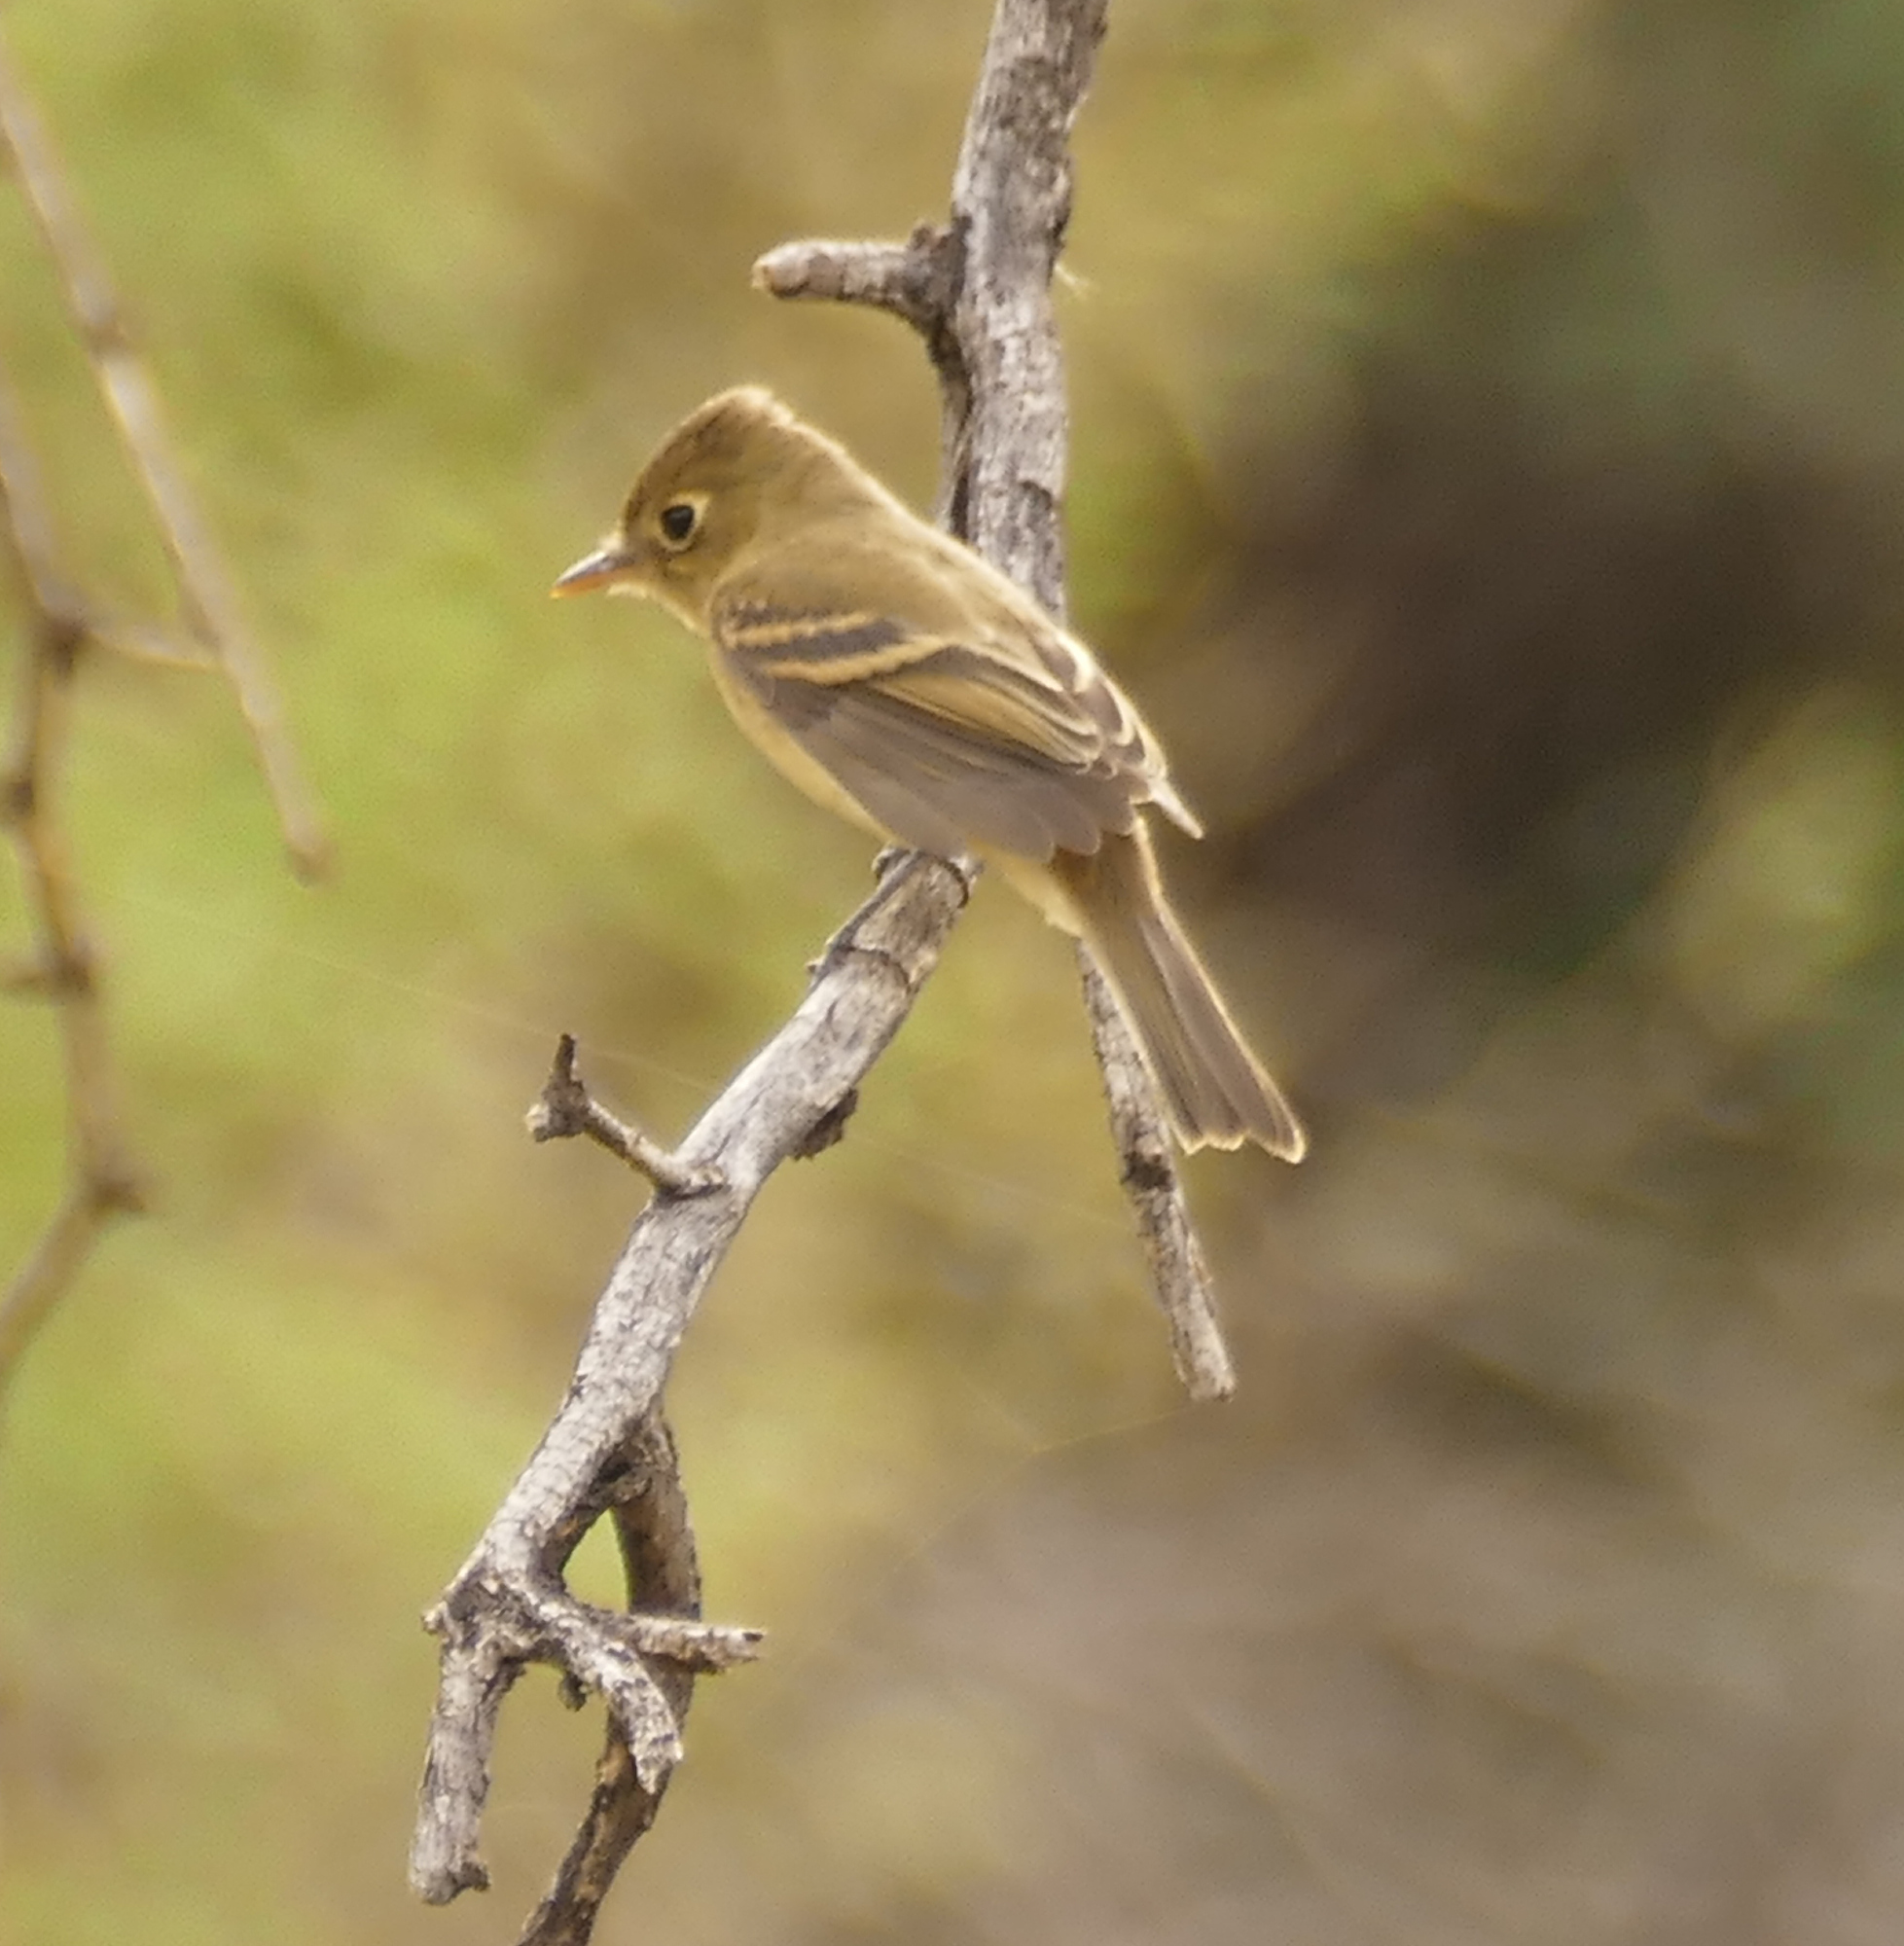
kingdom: Animalia
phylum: Chordata
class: Aves
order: Passeriformes
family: Tyrannidae
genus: Empidonax
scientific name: Empidonax difficilis
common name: Pacific-slope flycatcher
